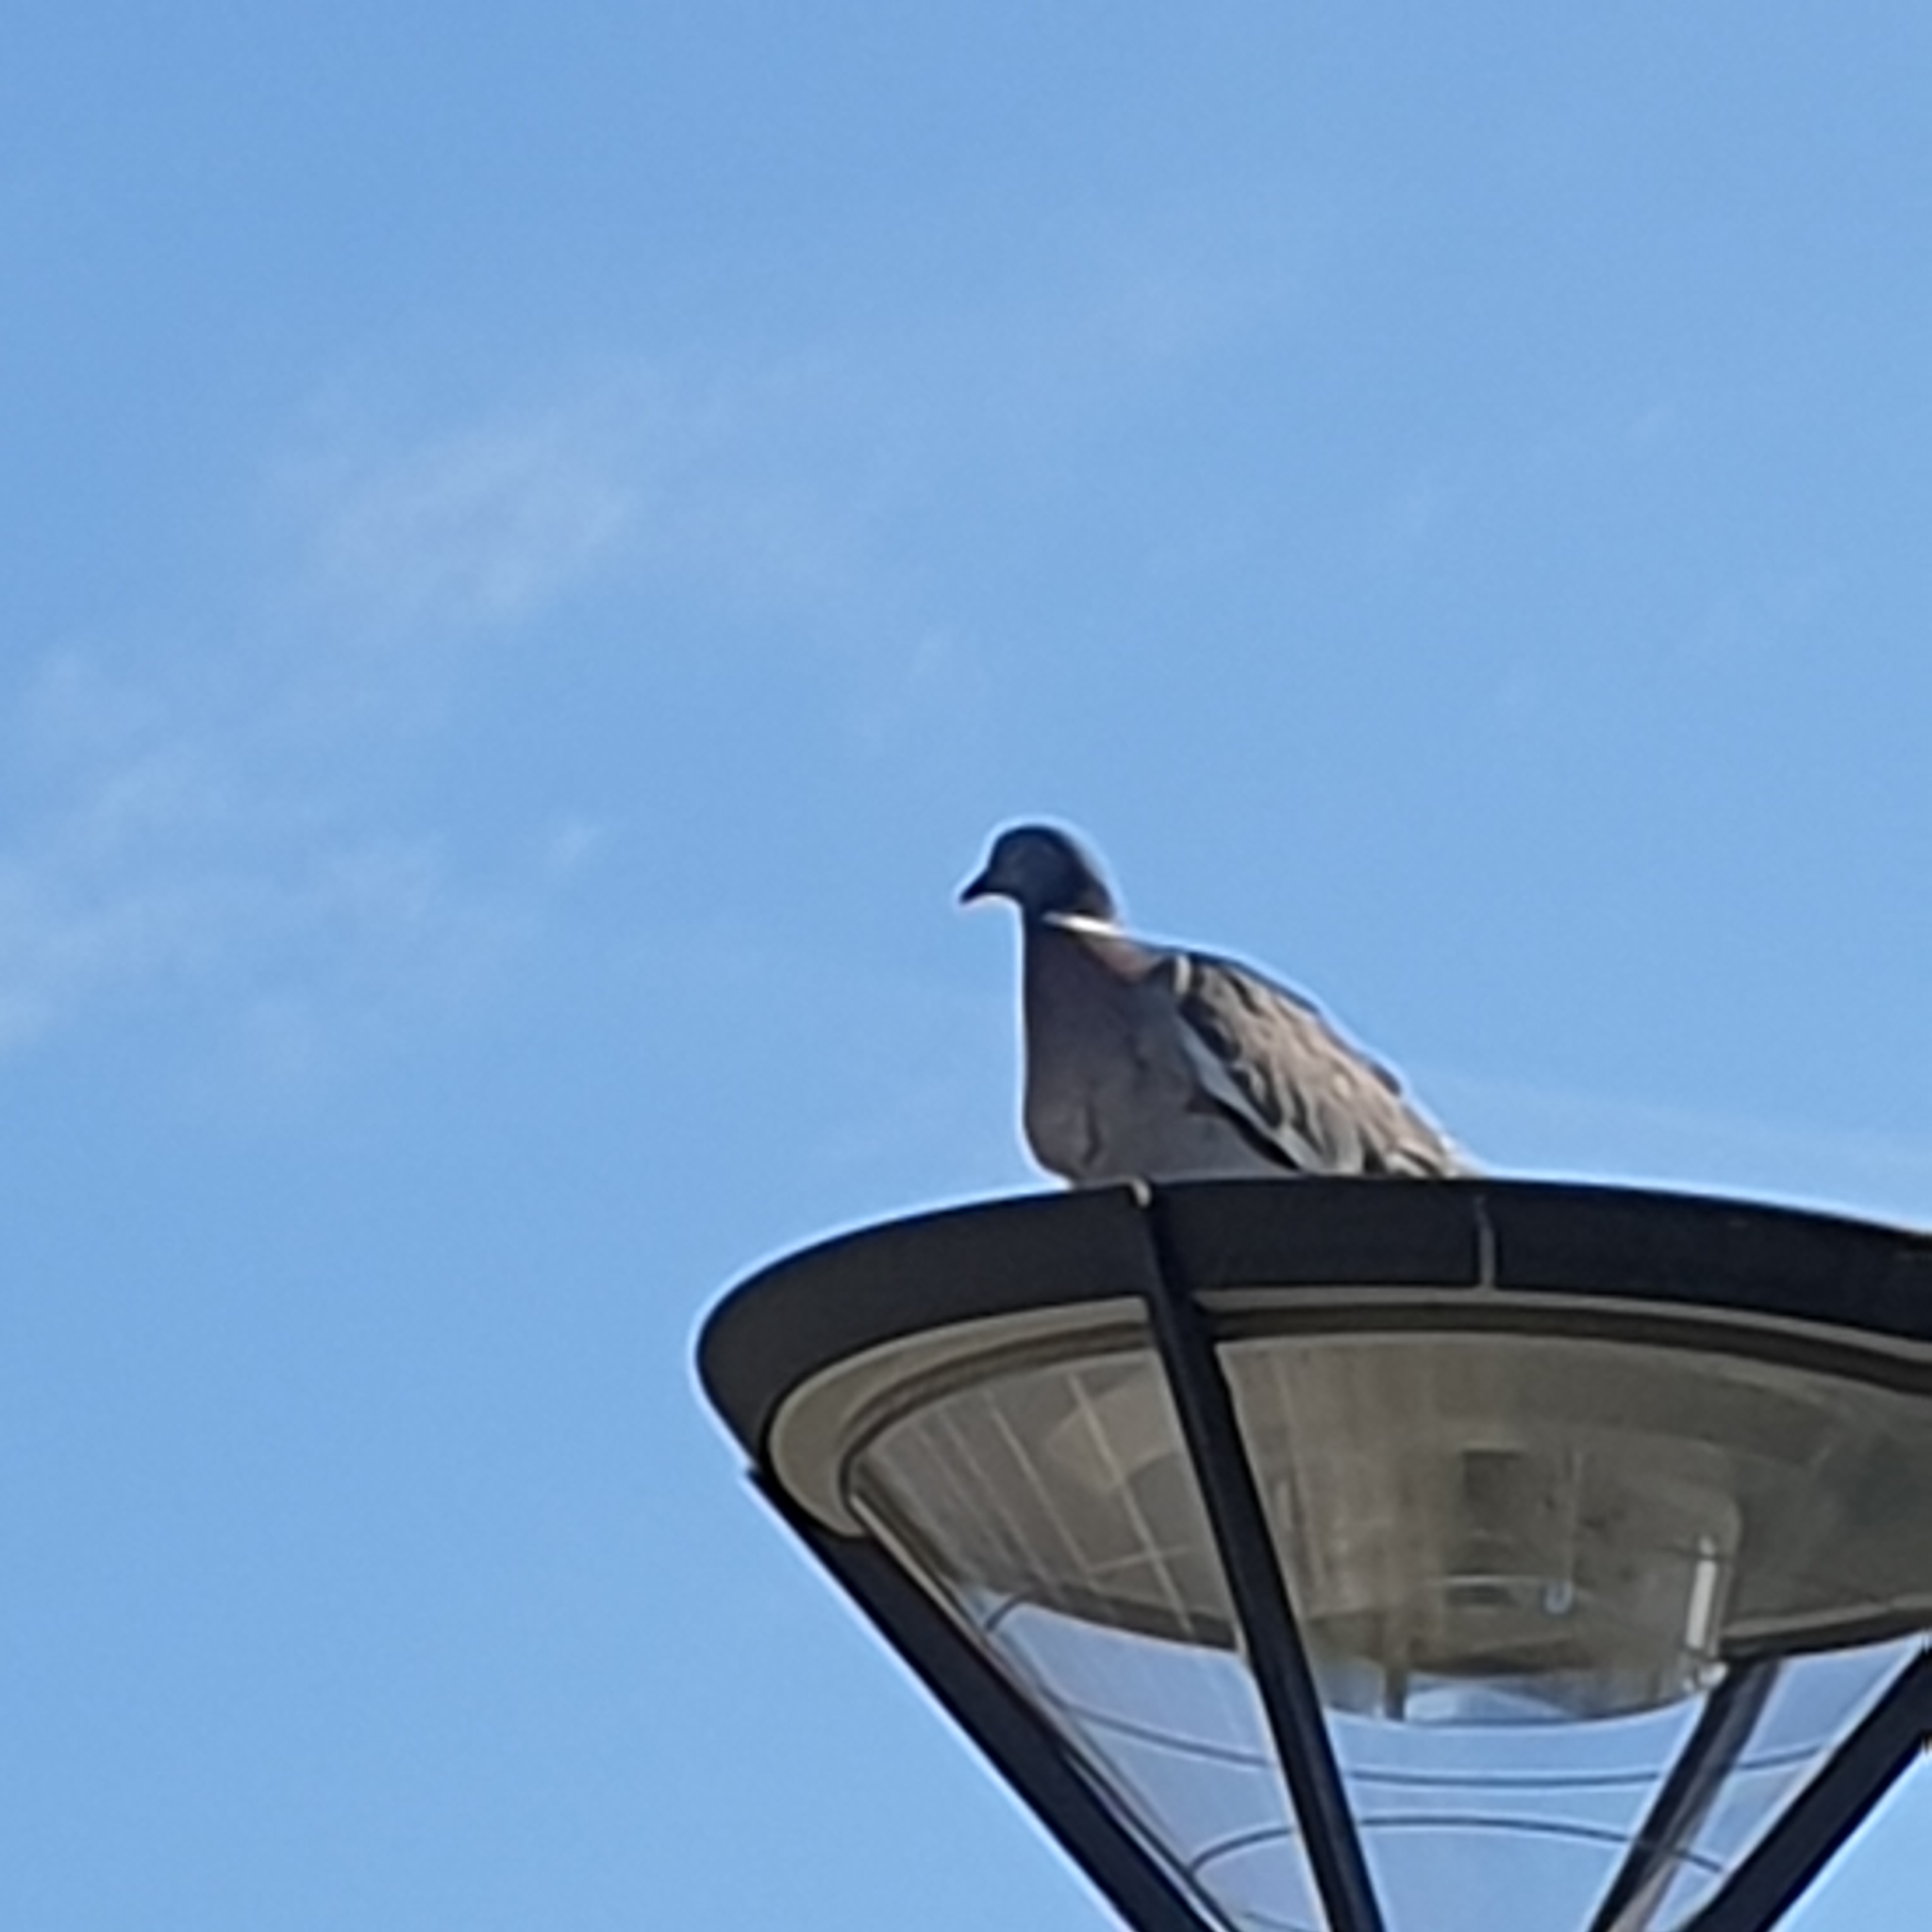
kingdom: Animalia
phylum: Chordata
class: Aves
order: Columbiformes
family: Columbidae
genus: Columba
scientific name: Columba palumbus
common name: Common wood pigeon
